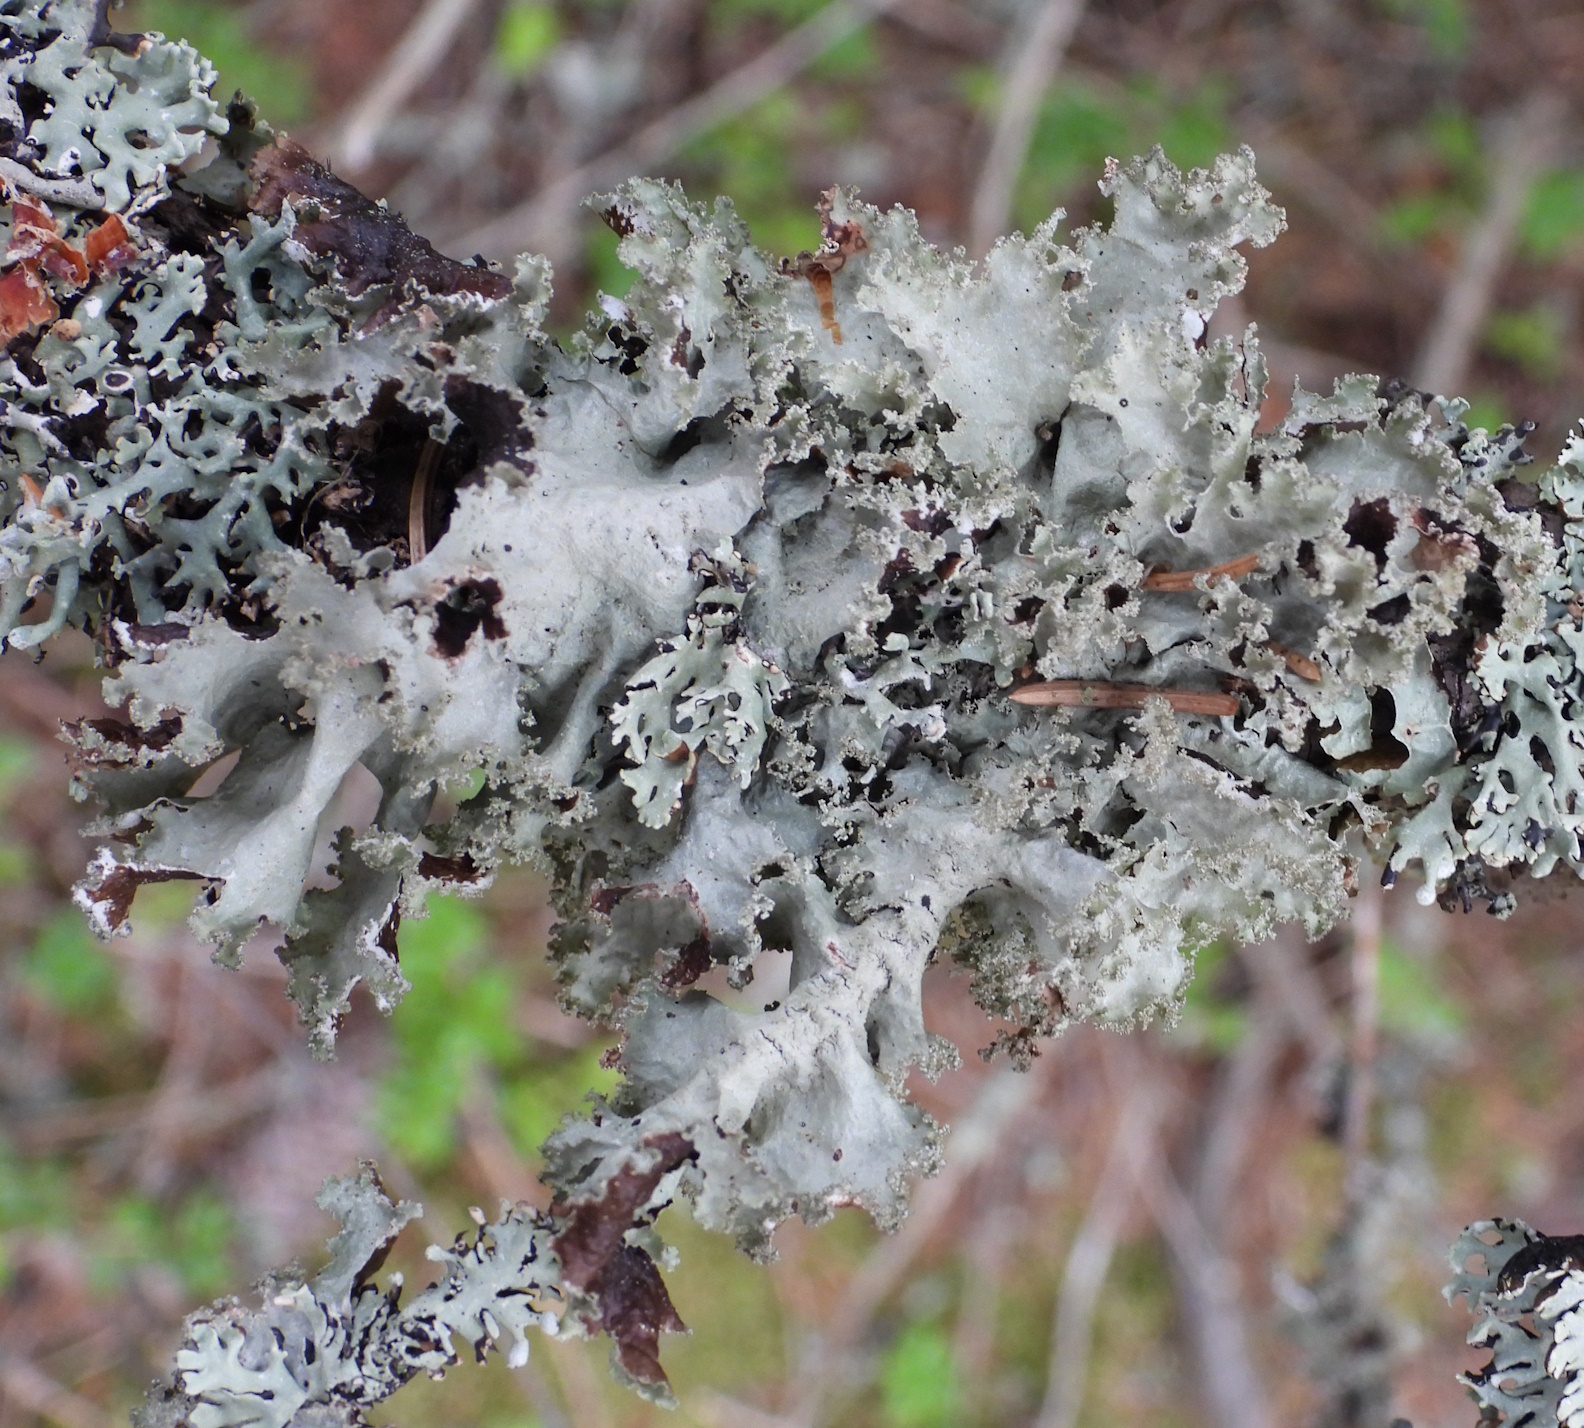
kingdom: Fungi
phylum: Ascomycota
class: Lecanoromycetes
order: Lecanorales
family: Parmeliaceae
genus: Platismatia
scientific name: Platismatia glauca
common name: Varied rag lichen
